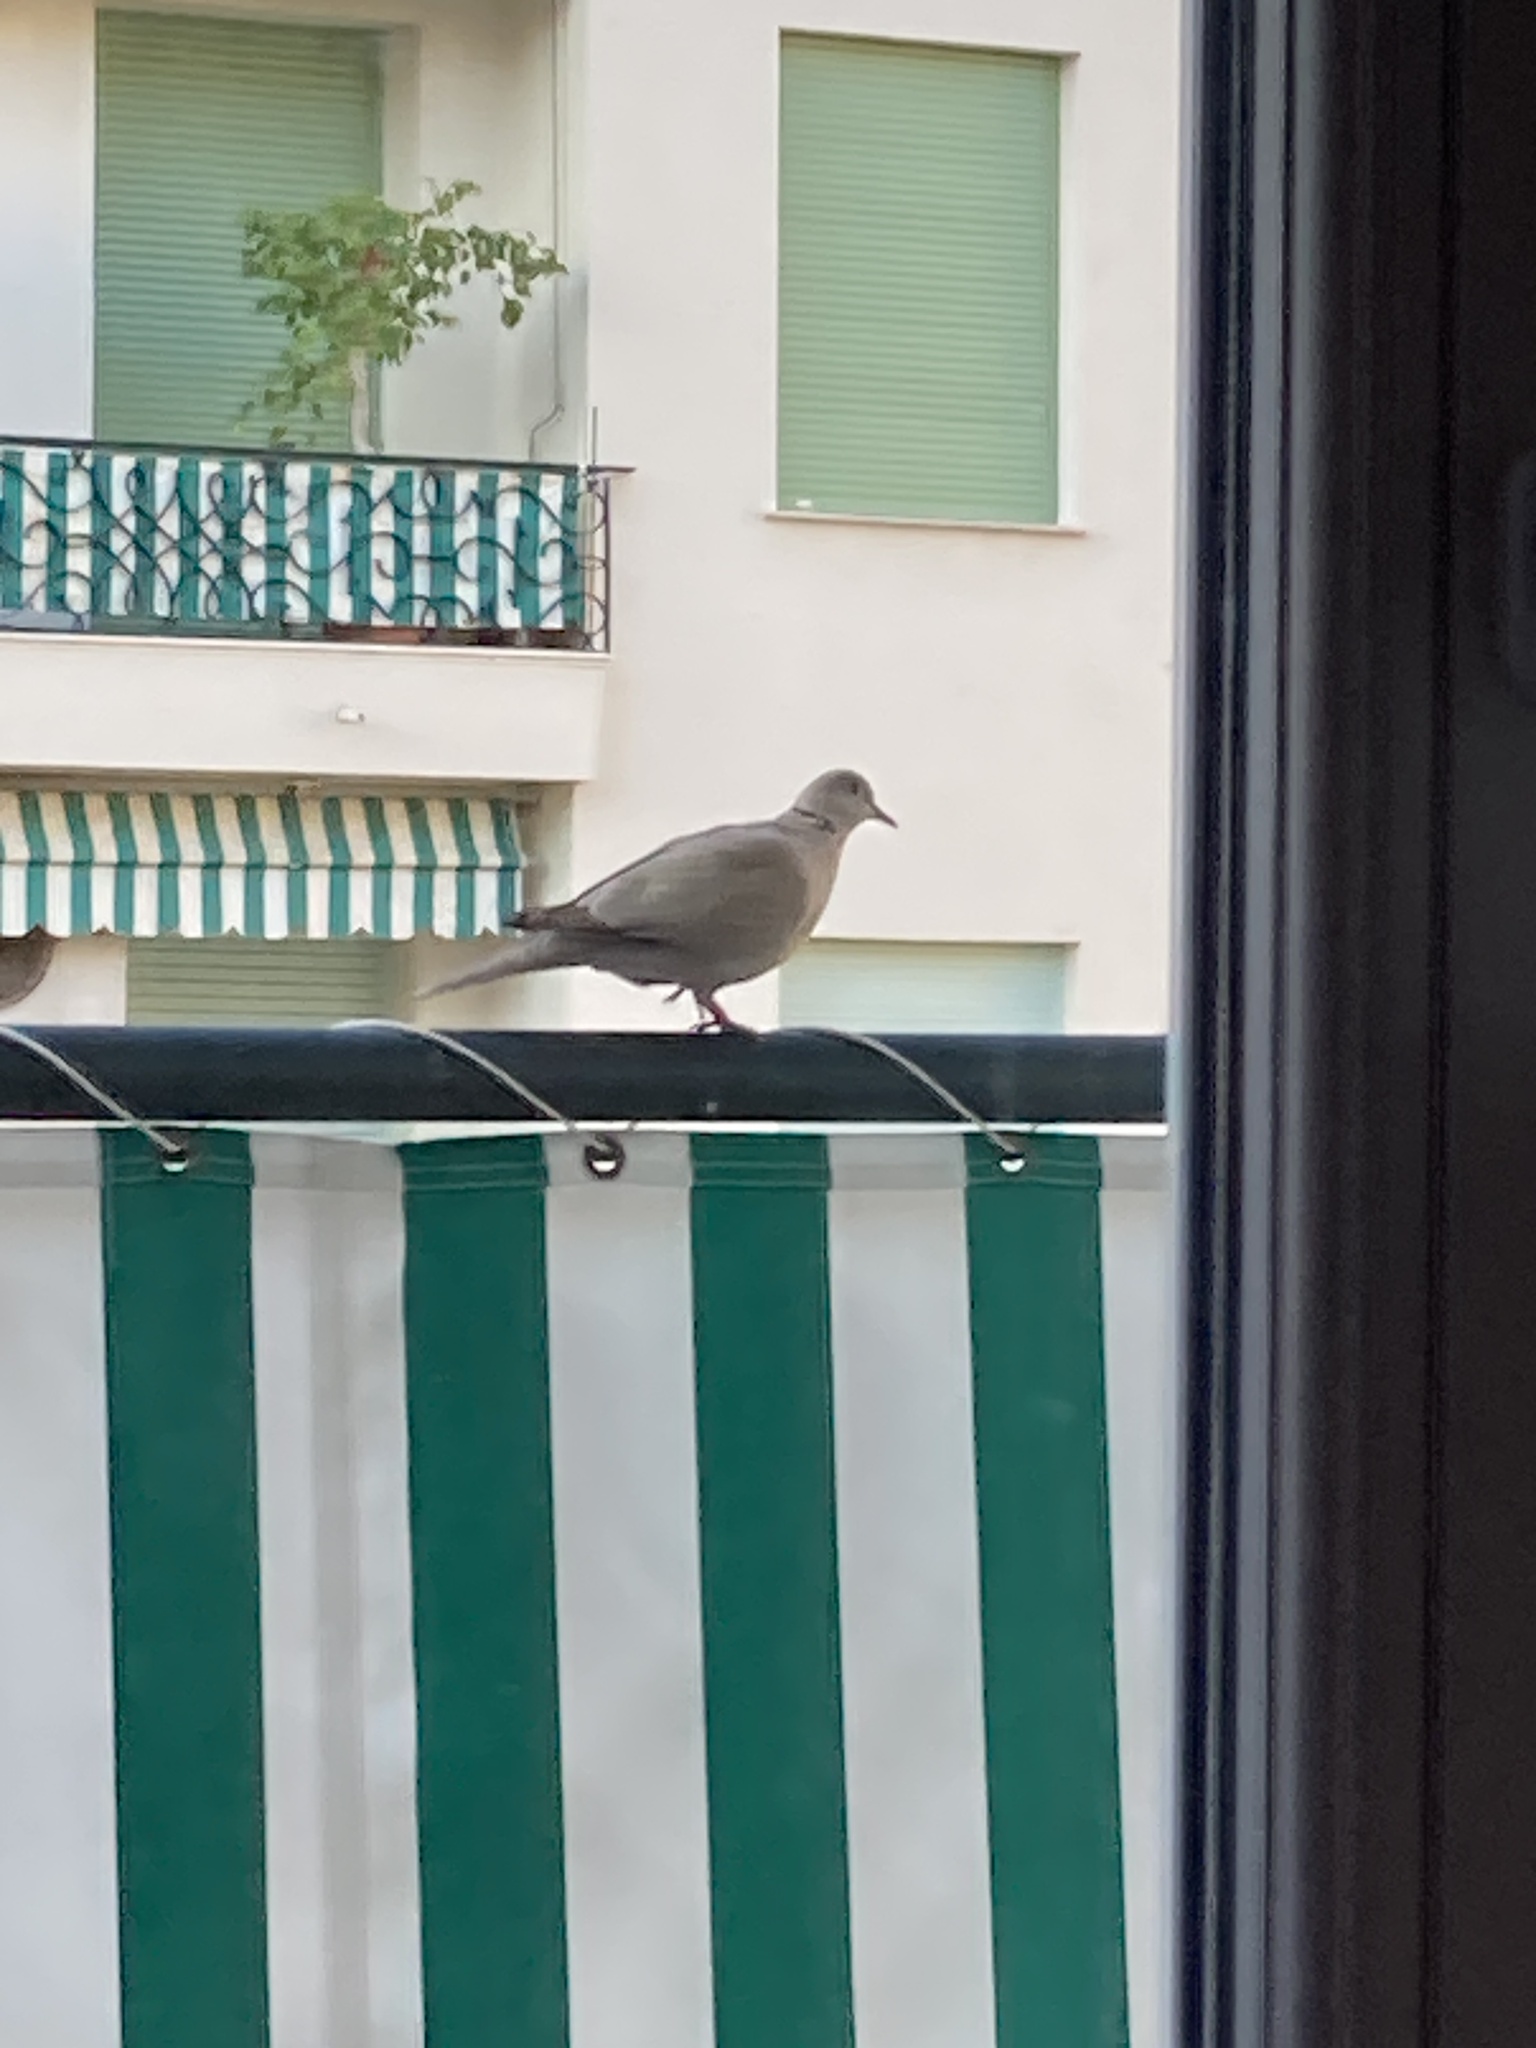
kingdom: Animalia
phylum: Chordata
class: Aves
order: Columbiformes
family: Columbidae
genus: Streptopelia
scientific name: Streptopelia decaocto
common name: Eurasian collared dove
